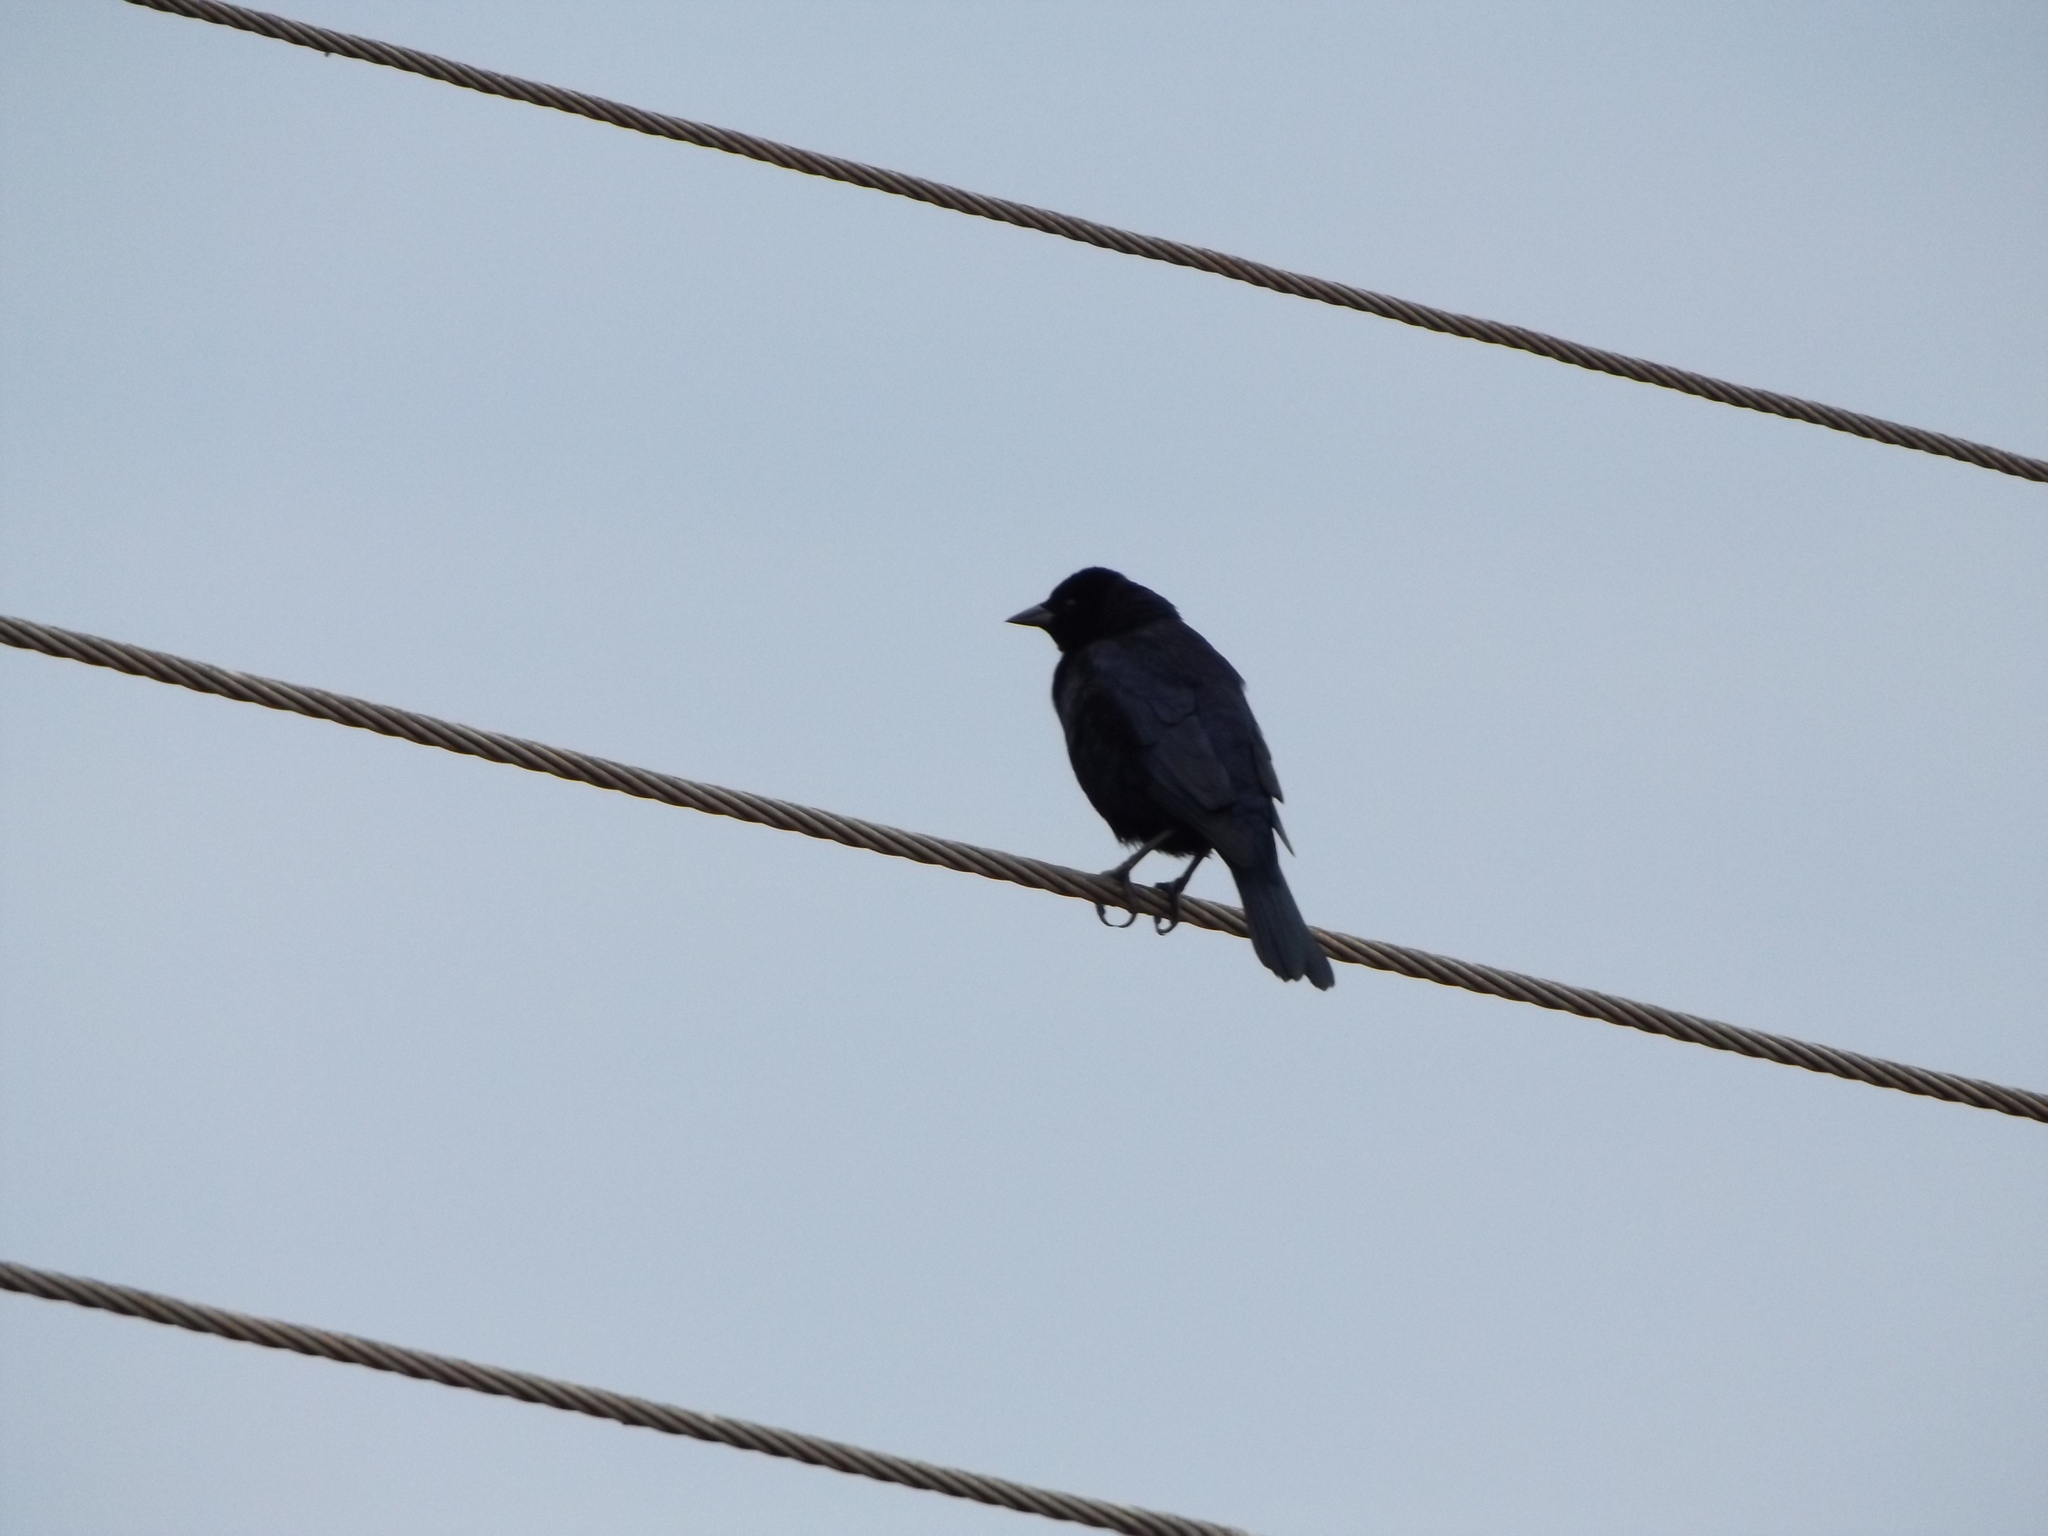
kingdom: Animalia
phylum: Chordata
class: Aves
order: Passeriformes
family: Icteridae
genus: Molothrus
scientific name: Molothrus bonariensis
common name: Shiny cowbird
